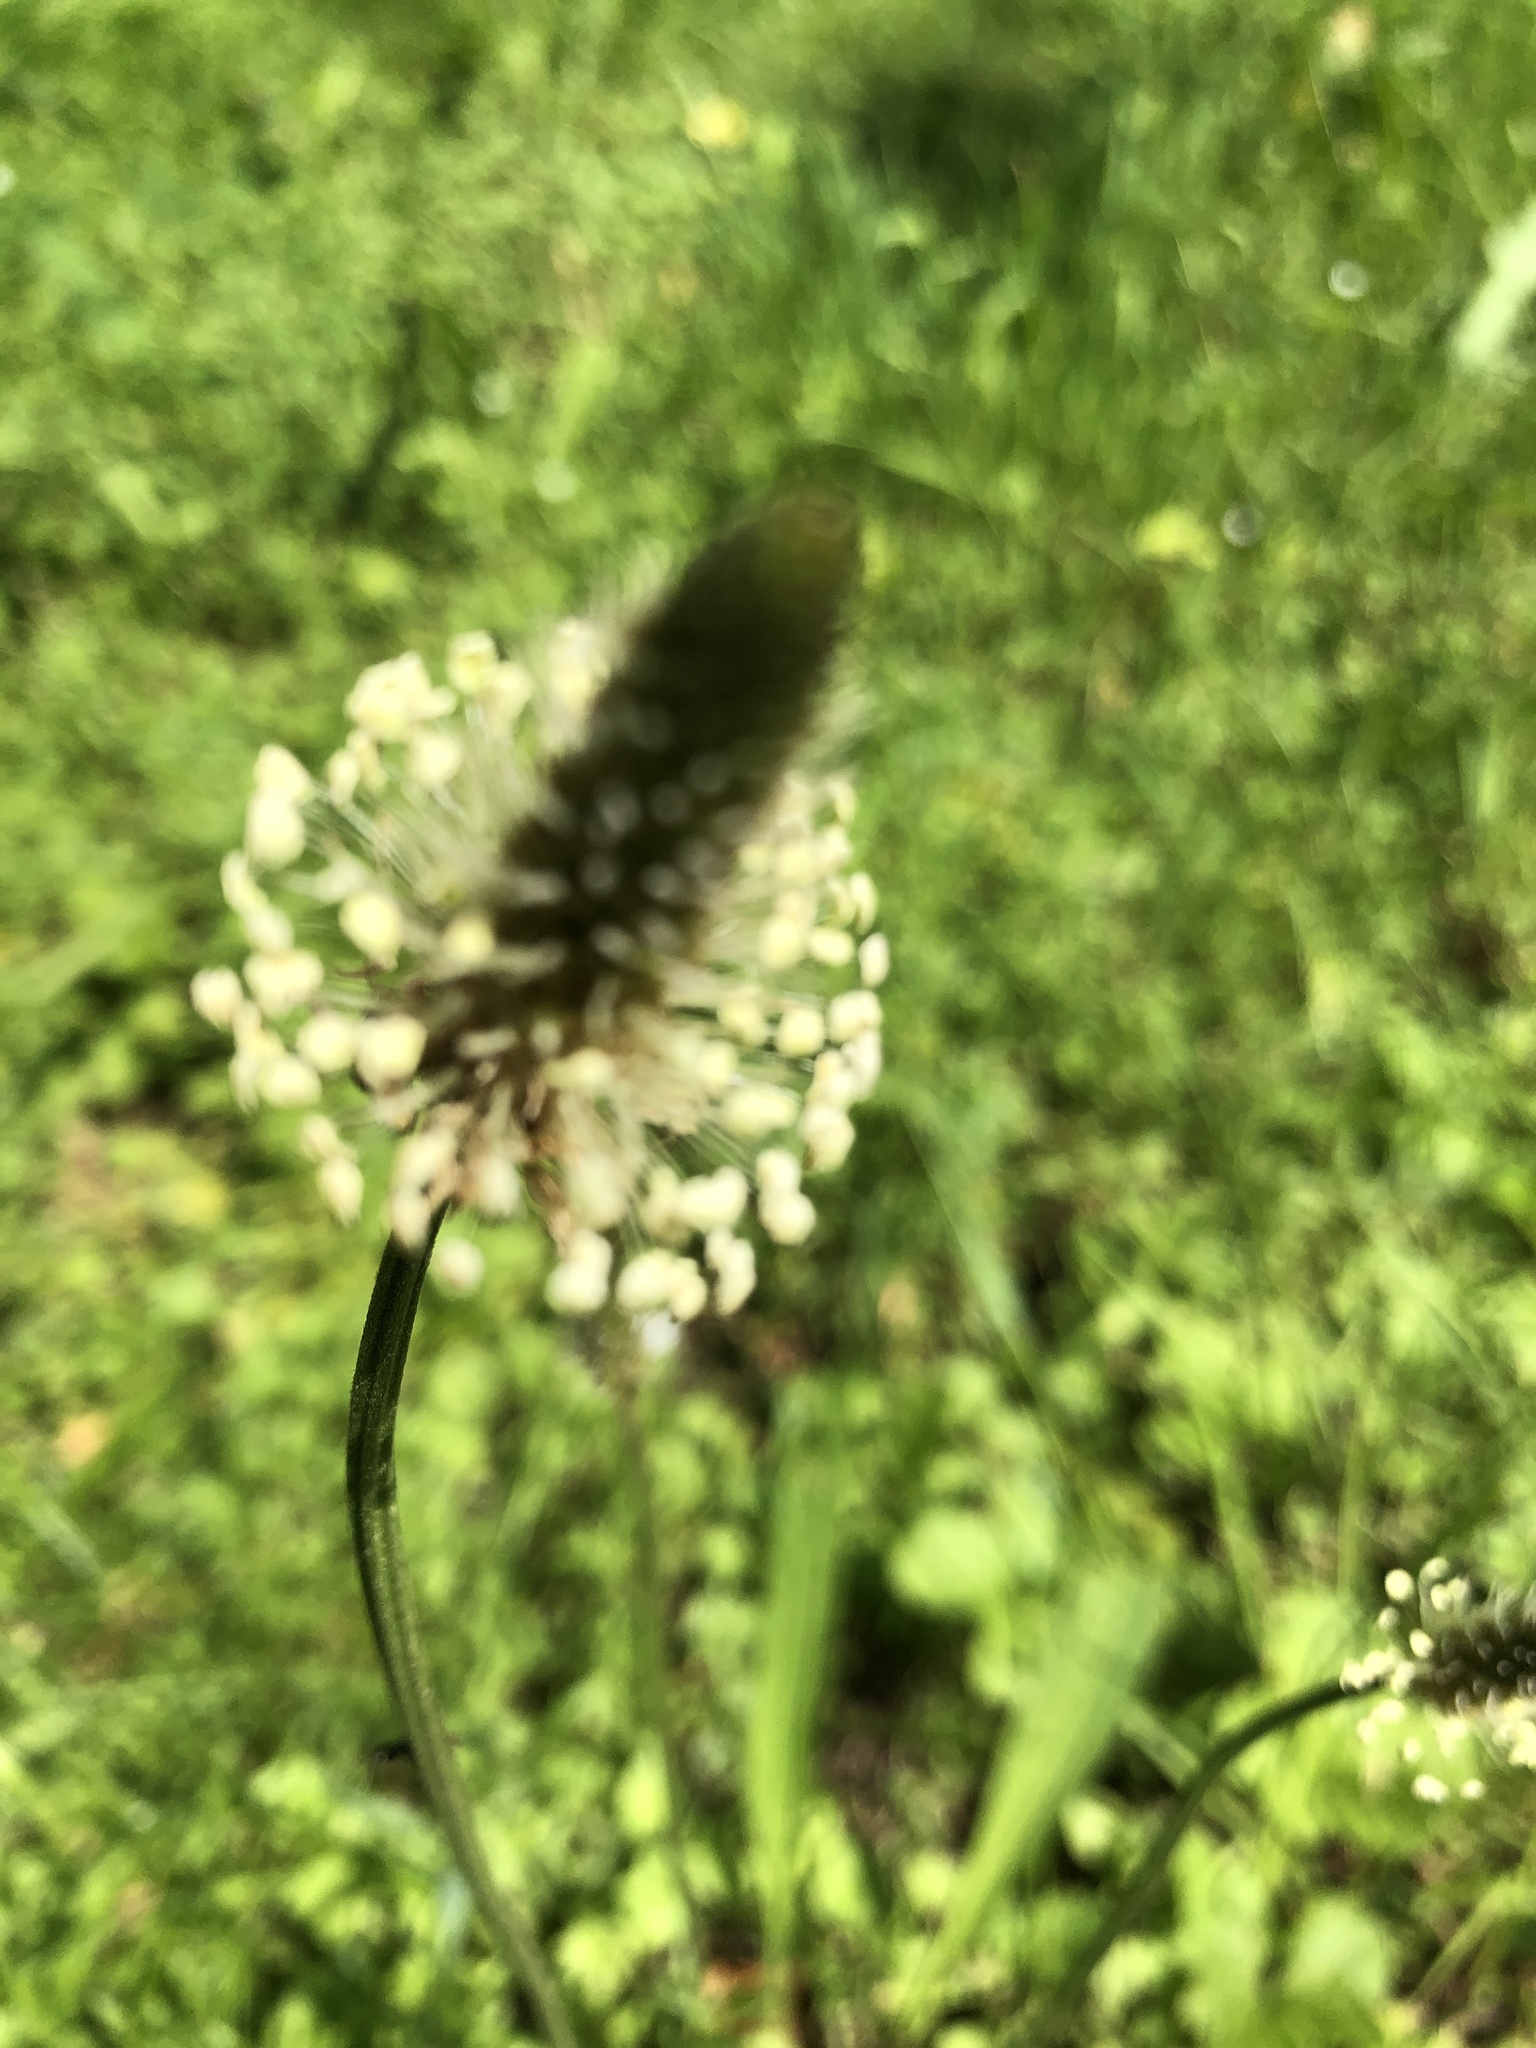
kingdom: Plantae
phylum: Tracheophyta
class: Magnoliopsida
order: Lamiales
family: Plantaginaceae
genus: Plantago
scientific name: Plantago lanceolata
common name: Ribwort plantain
